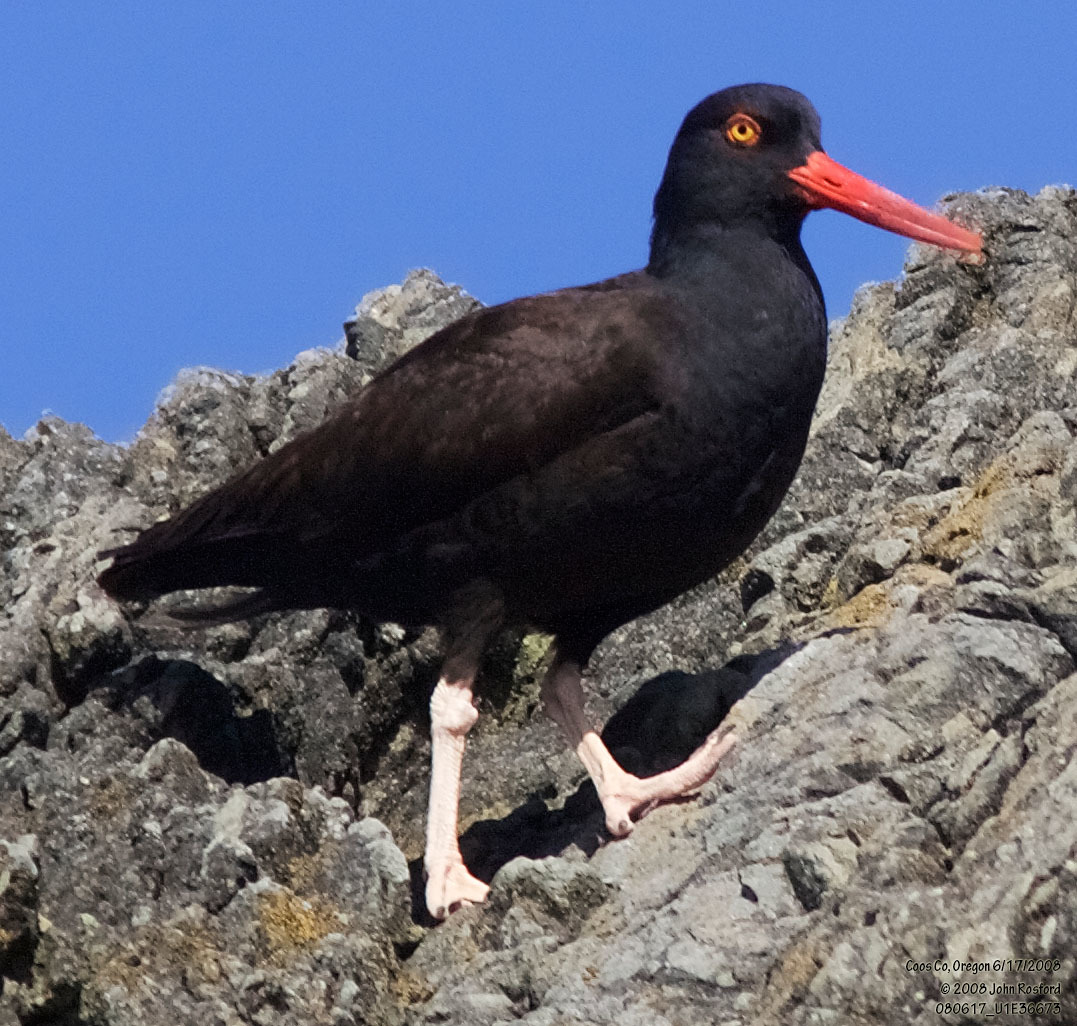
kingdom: Animalia
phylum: Chordata
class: Aves
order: Charadriiformes
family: Haematopodidae
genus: Haematopus
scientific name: Haematopus bachmani
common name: Black oystercatcher
